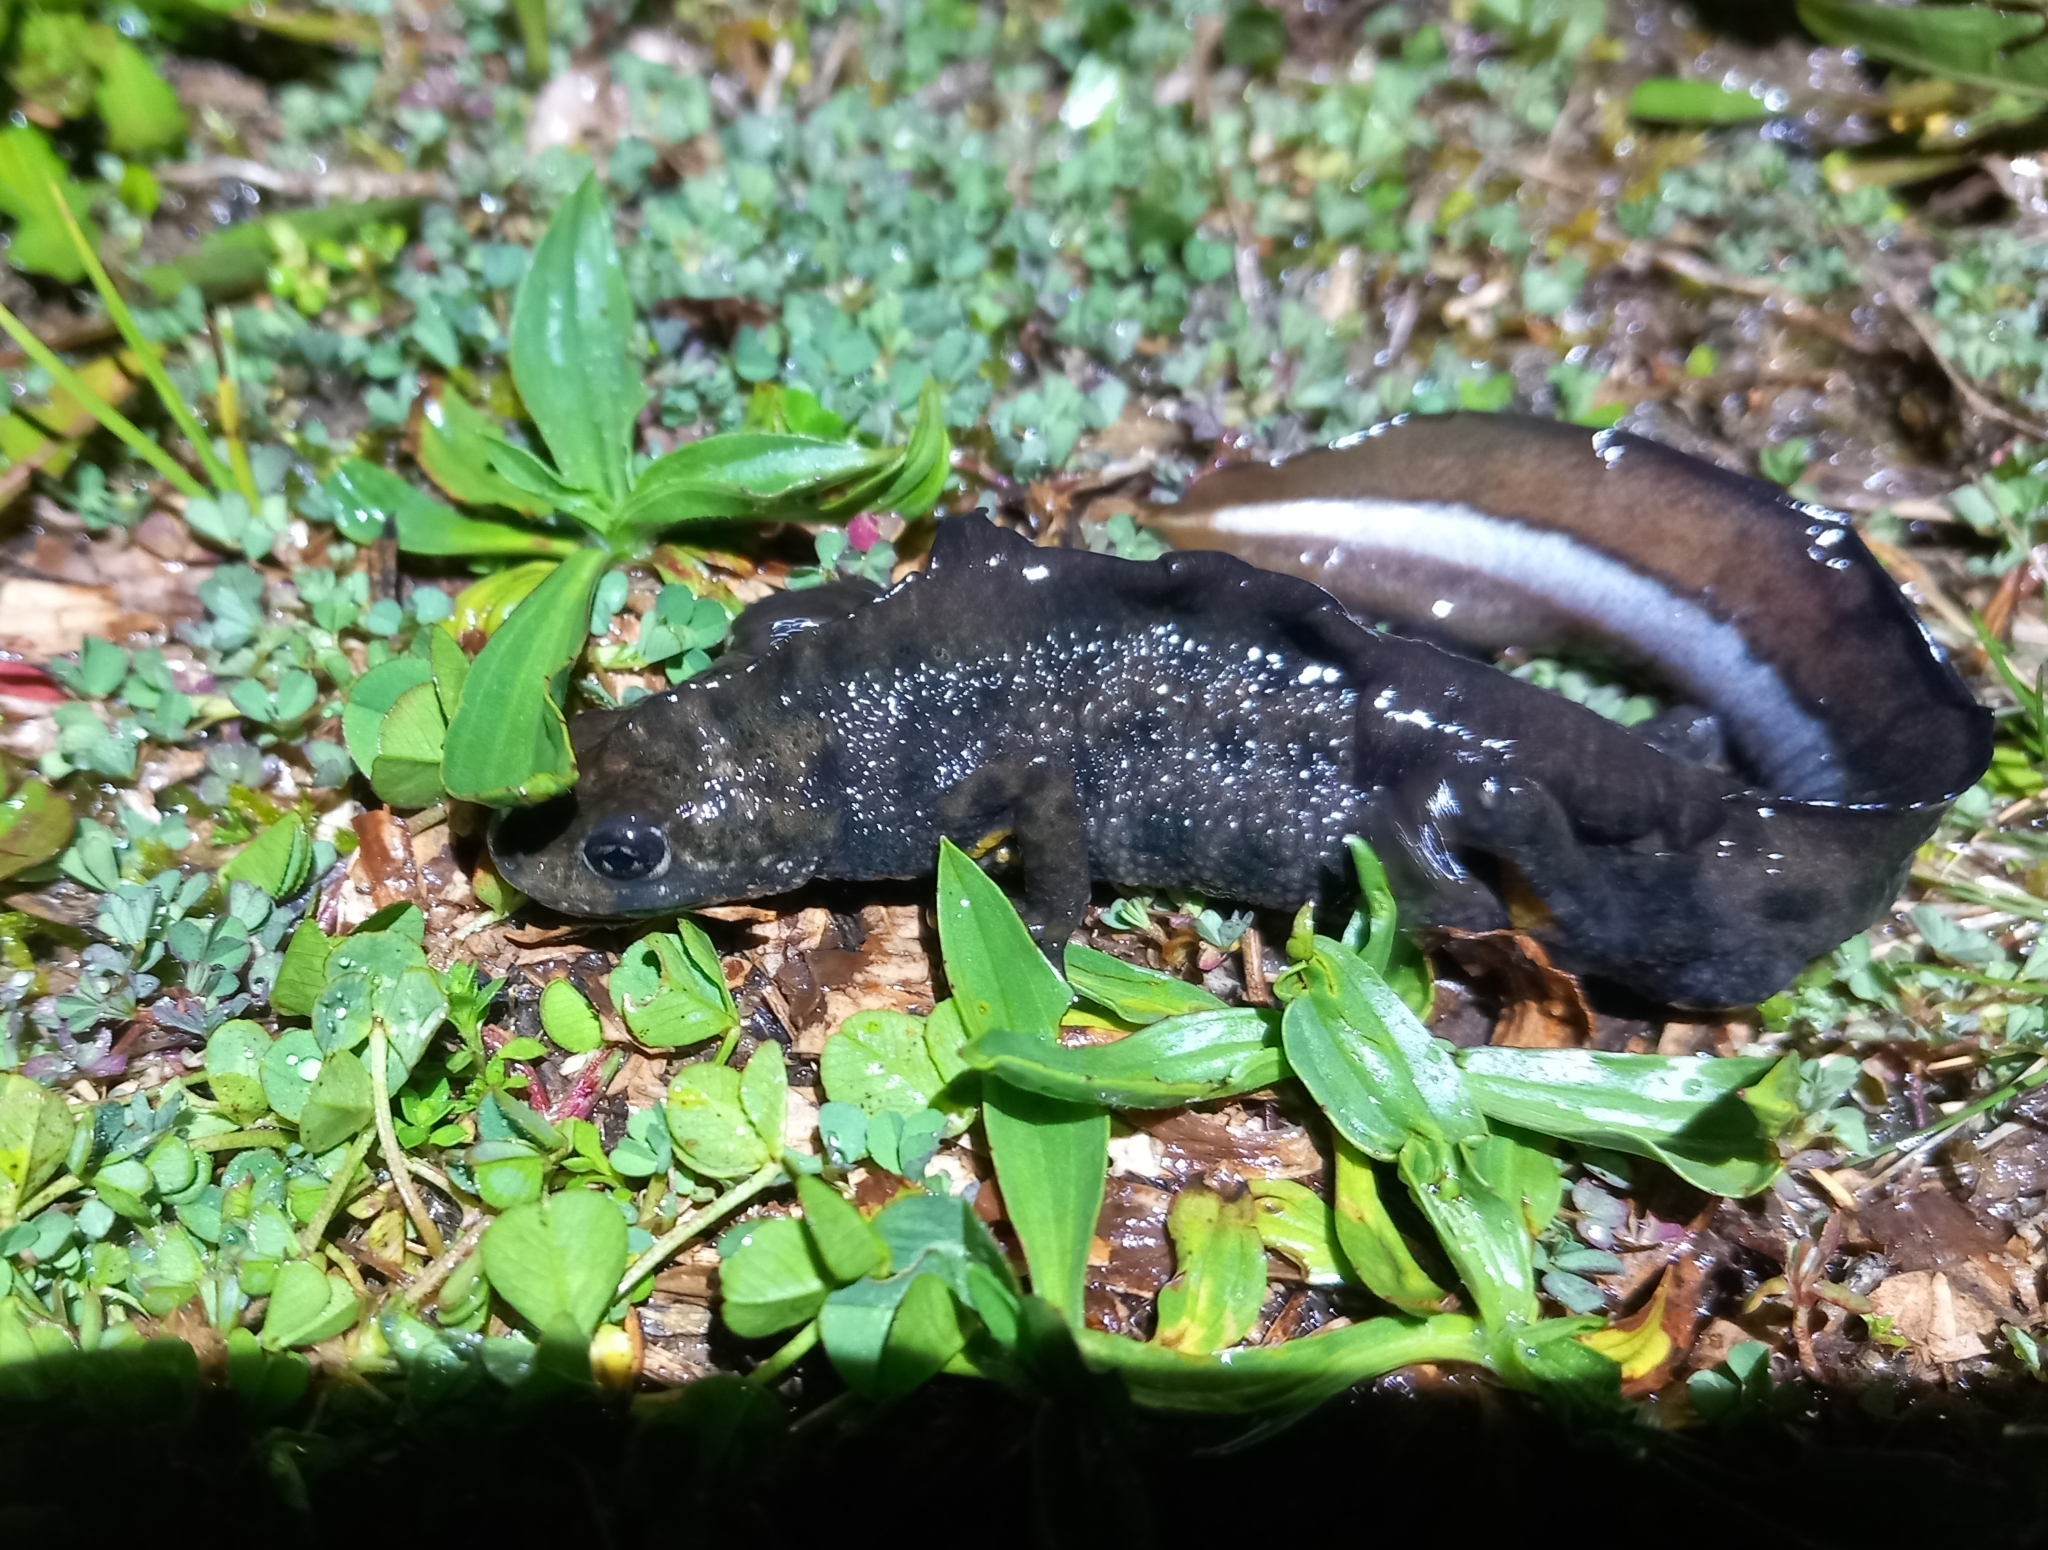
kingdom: Animalia
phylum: Chordata
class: Amphibia
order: Caudata
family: Salamandridae
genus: Triturus
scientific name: Triturus carnifex
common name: Italian crested newt
